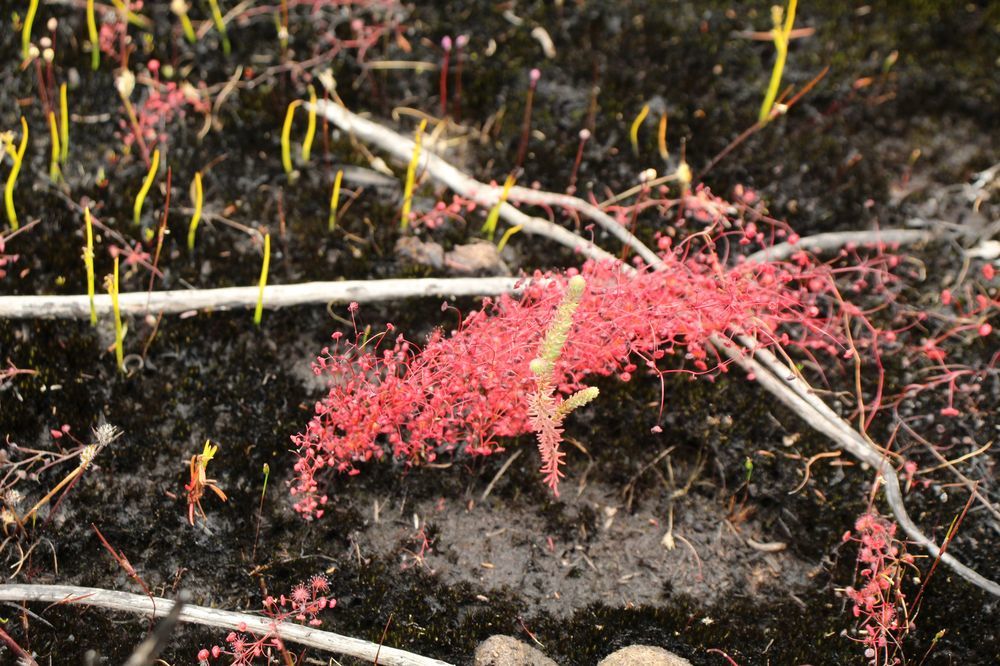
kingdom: Plantae
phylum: Tracheophyta
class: Magnoliopsida
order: Caryophyllales
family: Droseraceae
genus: Drosera
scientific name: Drosera
